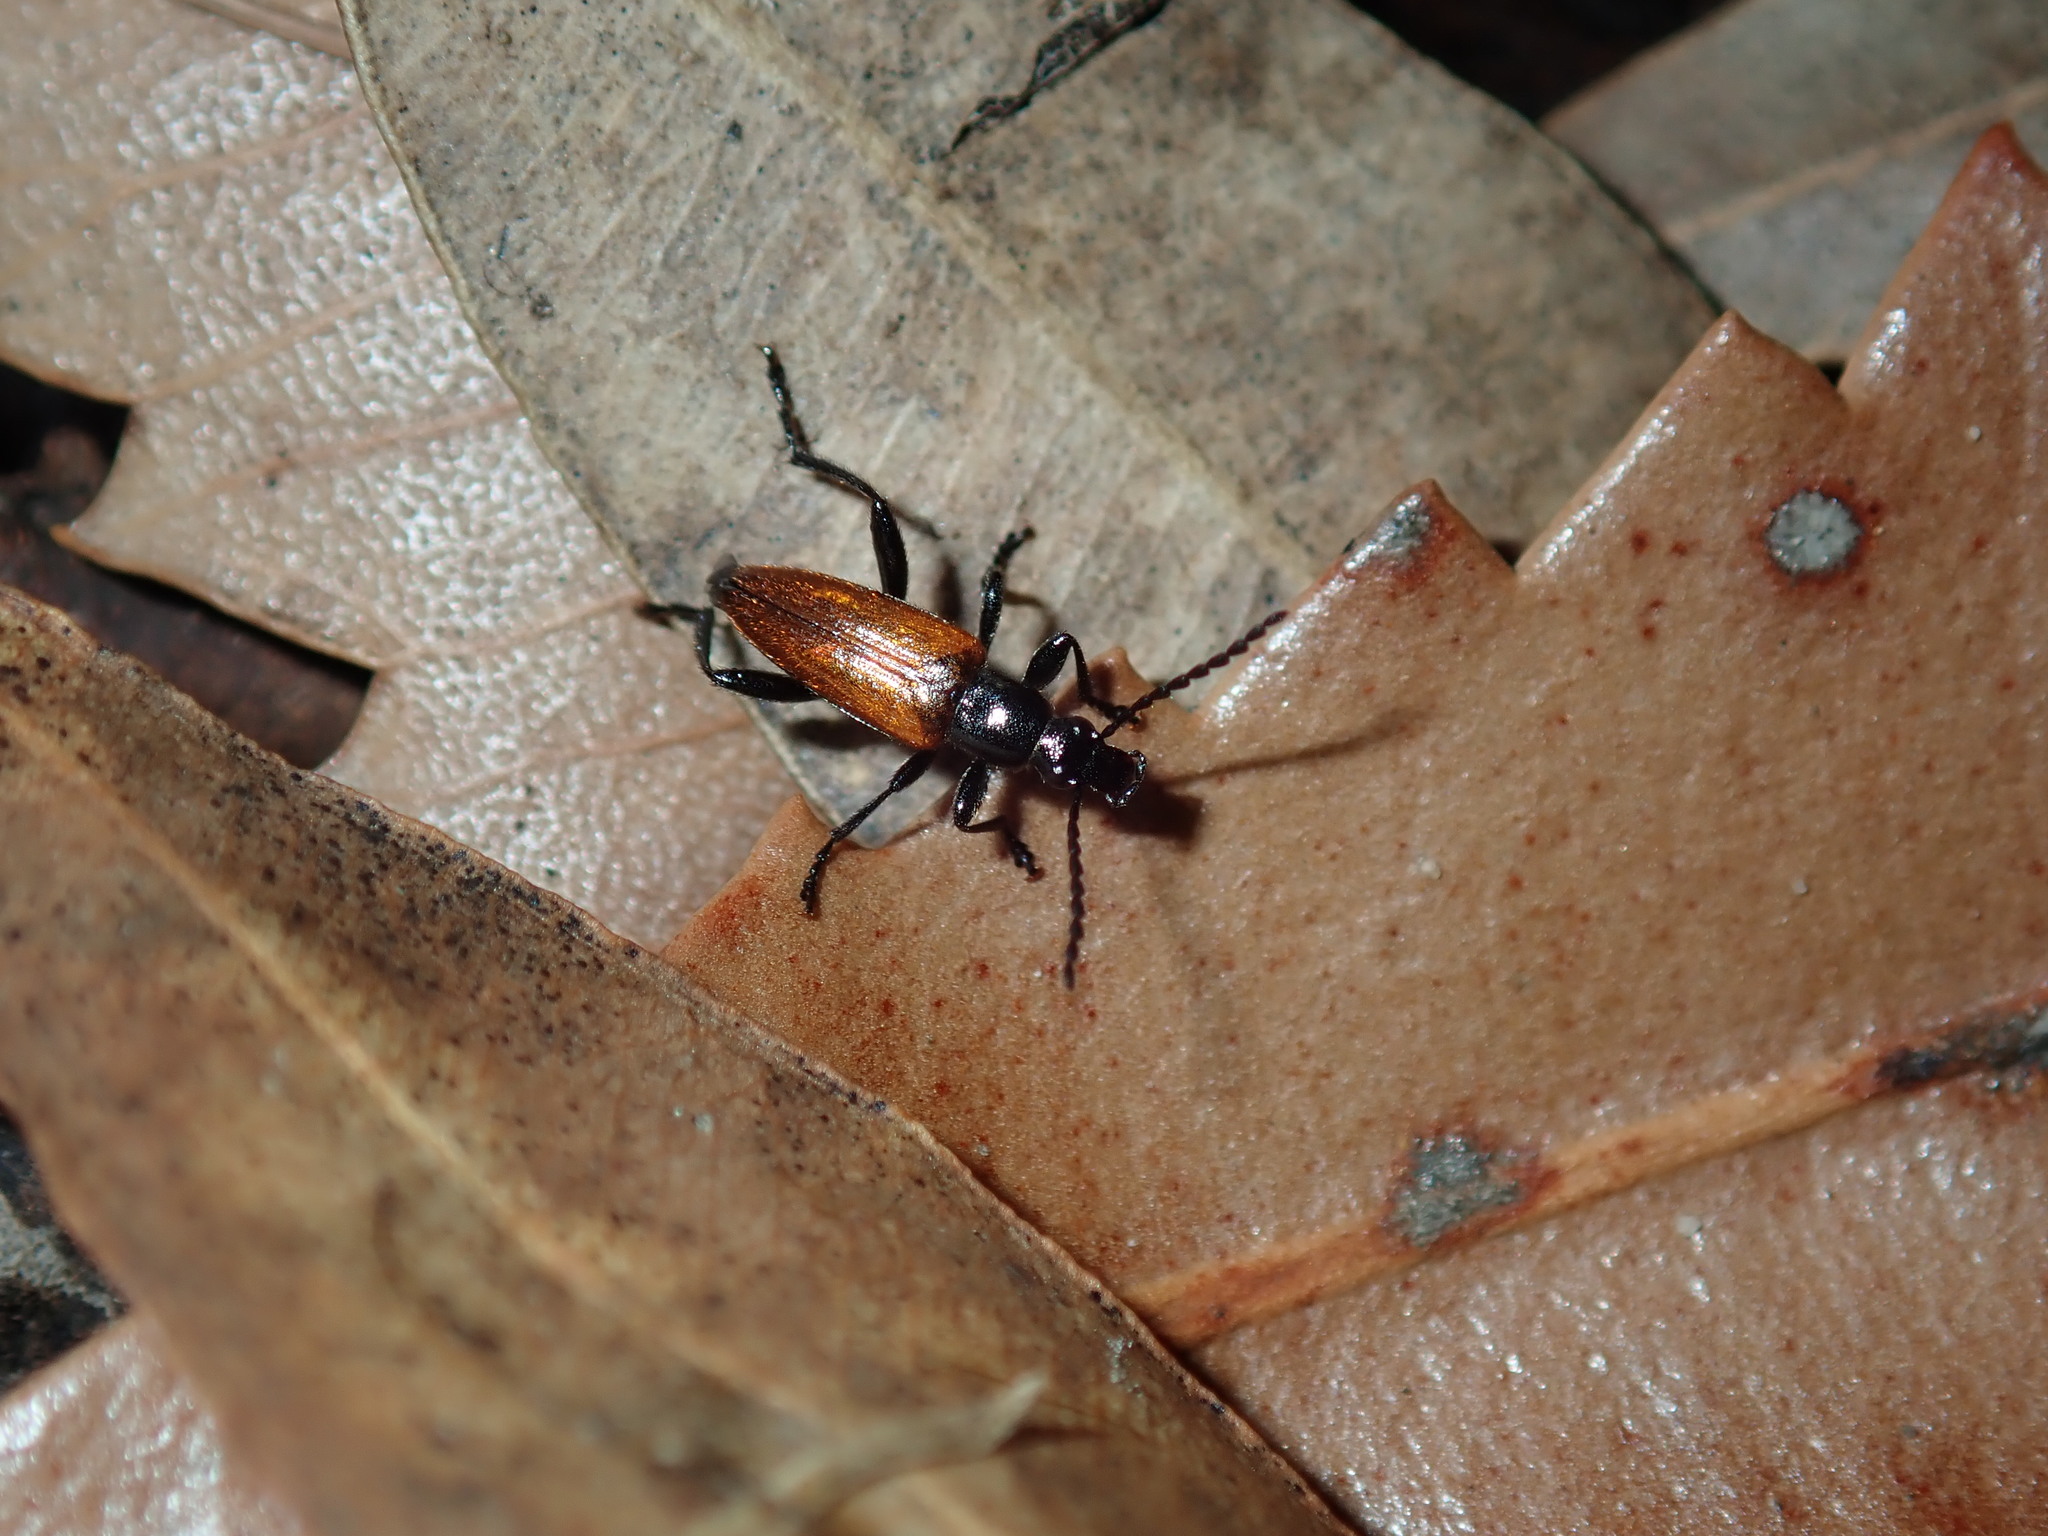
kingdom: Animalia
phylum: Arthropoda
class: Insecta
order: Coleoptera
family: Tenebrionidae
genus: Lepturidea
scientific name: Lepturidea deplanchei
